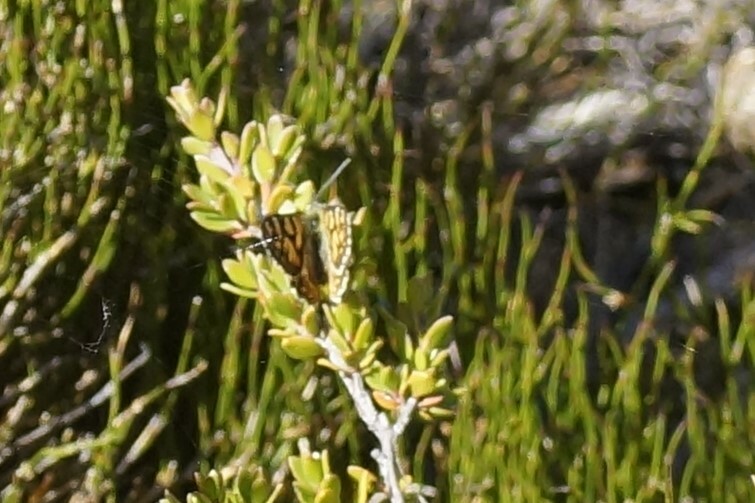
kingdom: Animalia
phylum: Arthropoda
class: Insecta
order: Lepidoptera
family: Nymphalidae
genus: Oreixenica
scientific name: Oreixenica lathoniella
